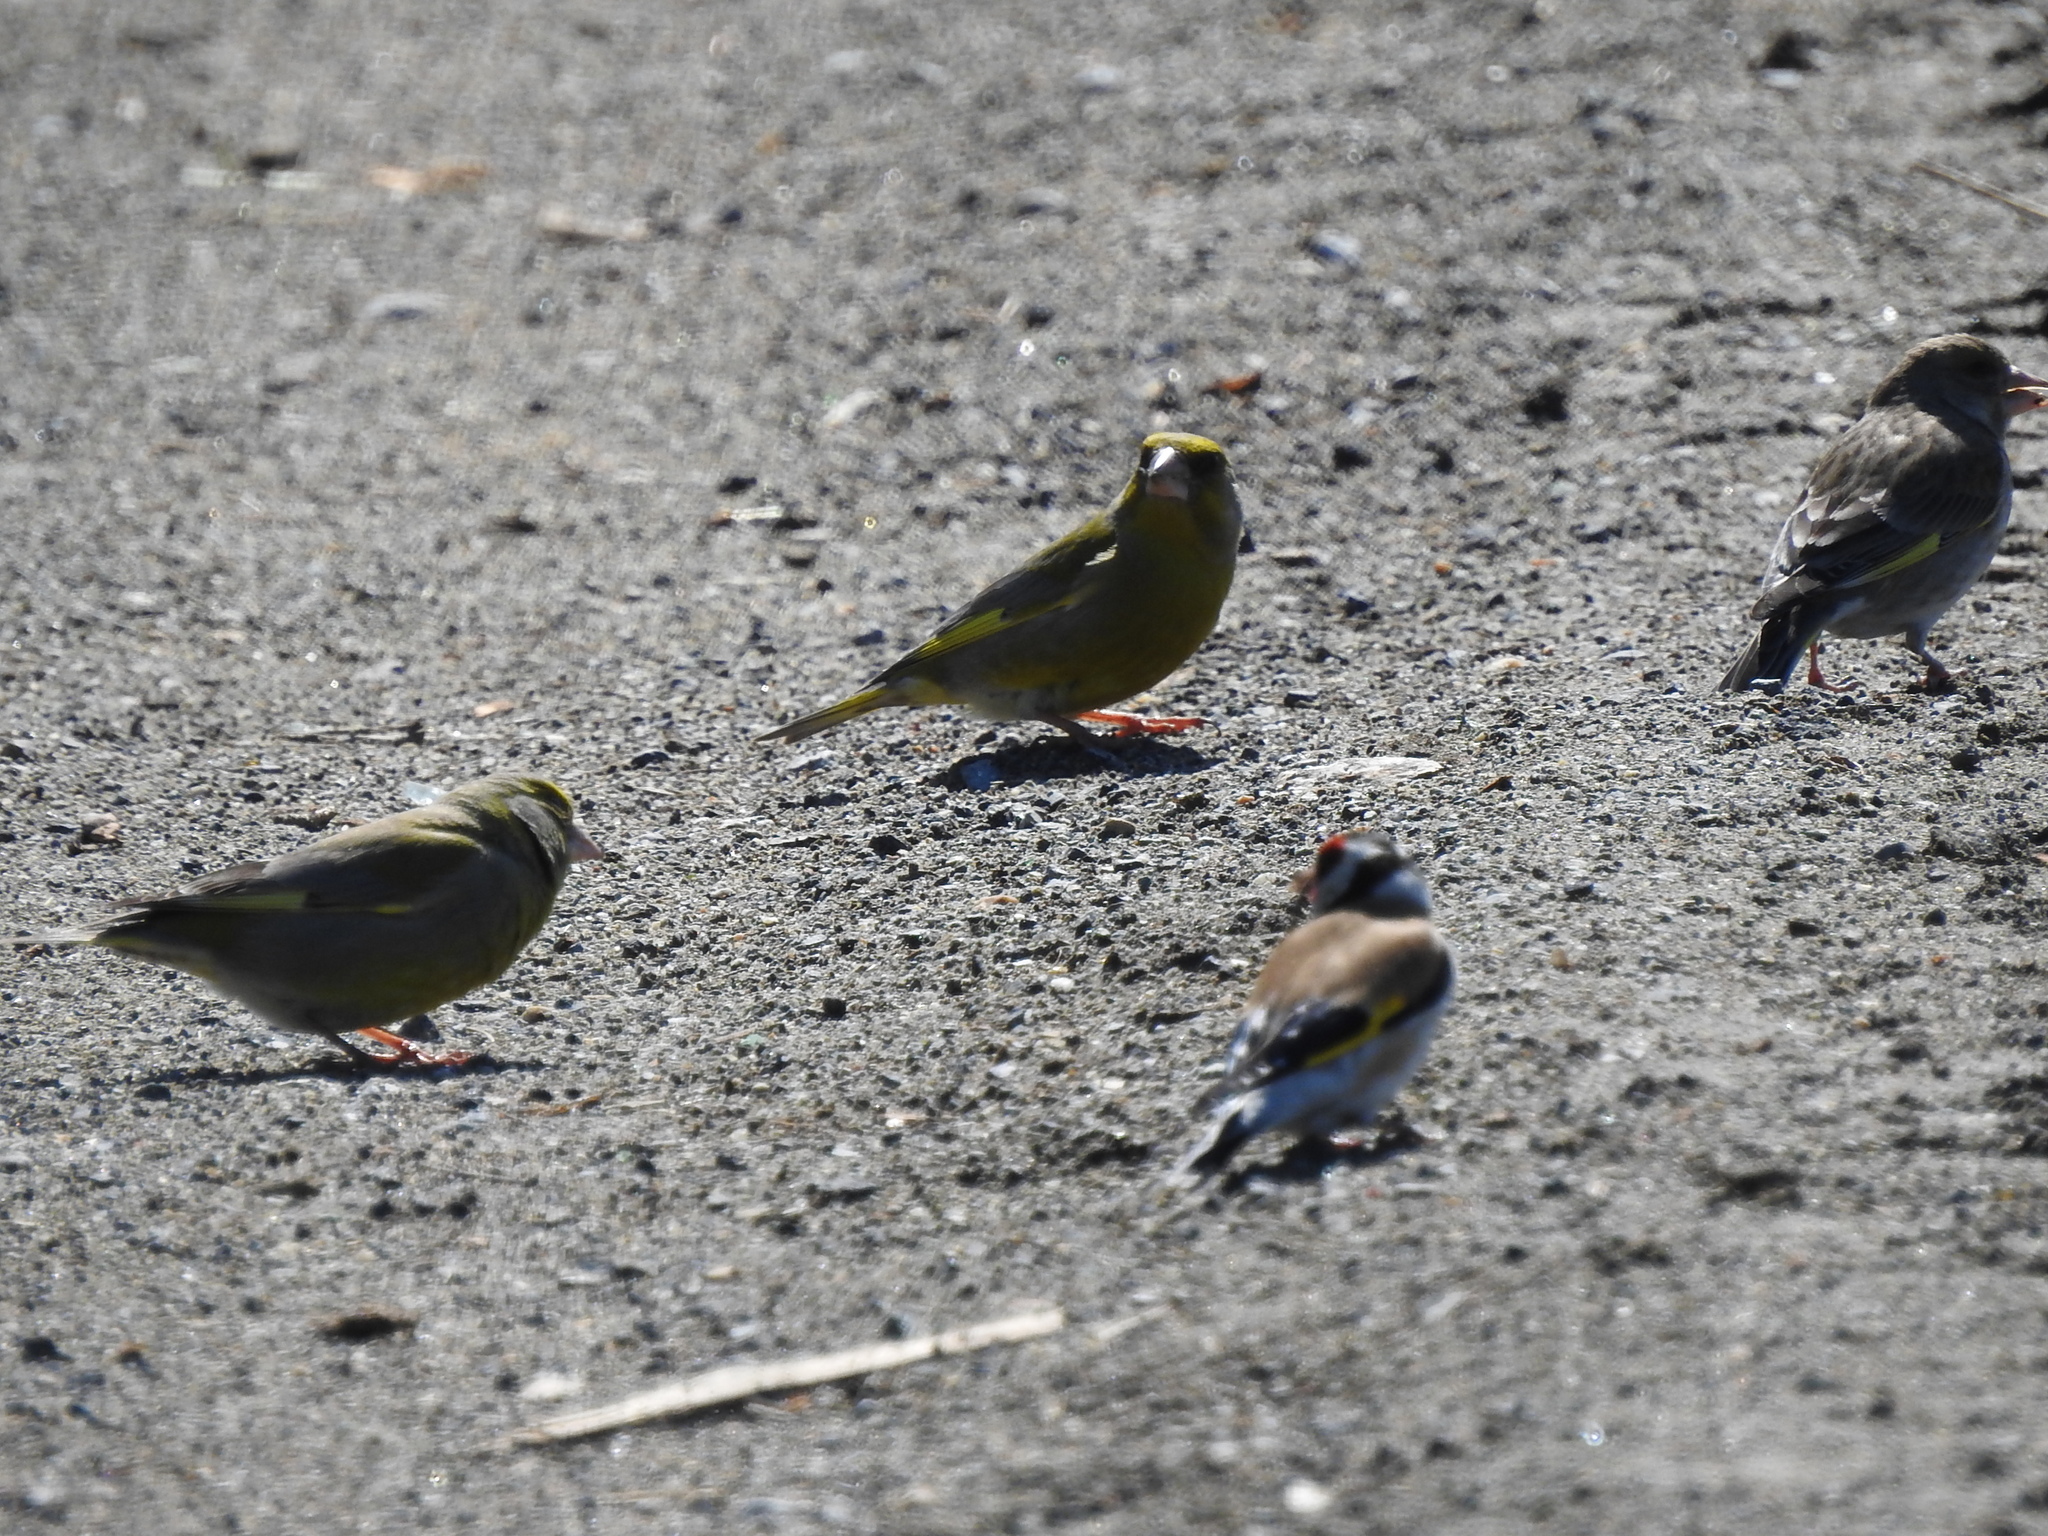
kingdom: Plantae
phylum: Tracheophyta
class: Liliopsida
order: Poales
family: Poaceae
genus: Chloris
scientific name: Chloris chloris
